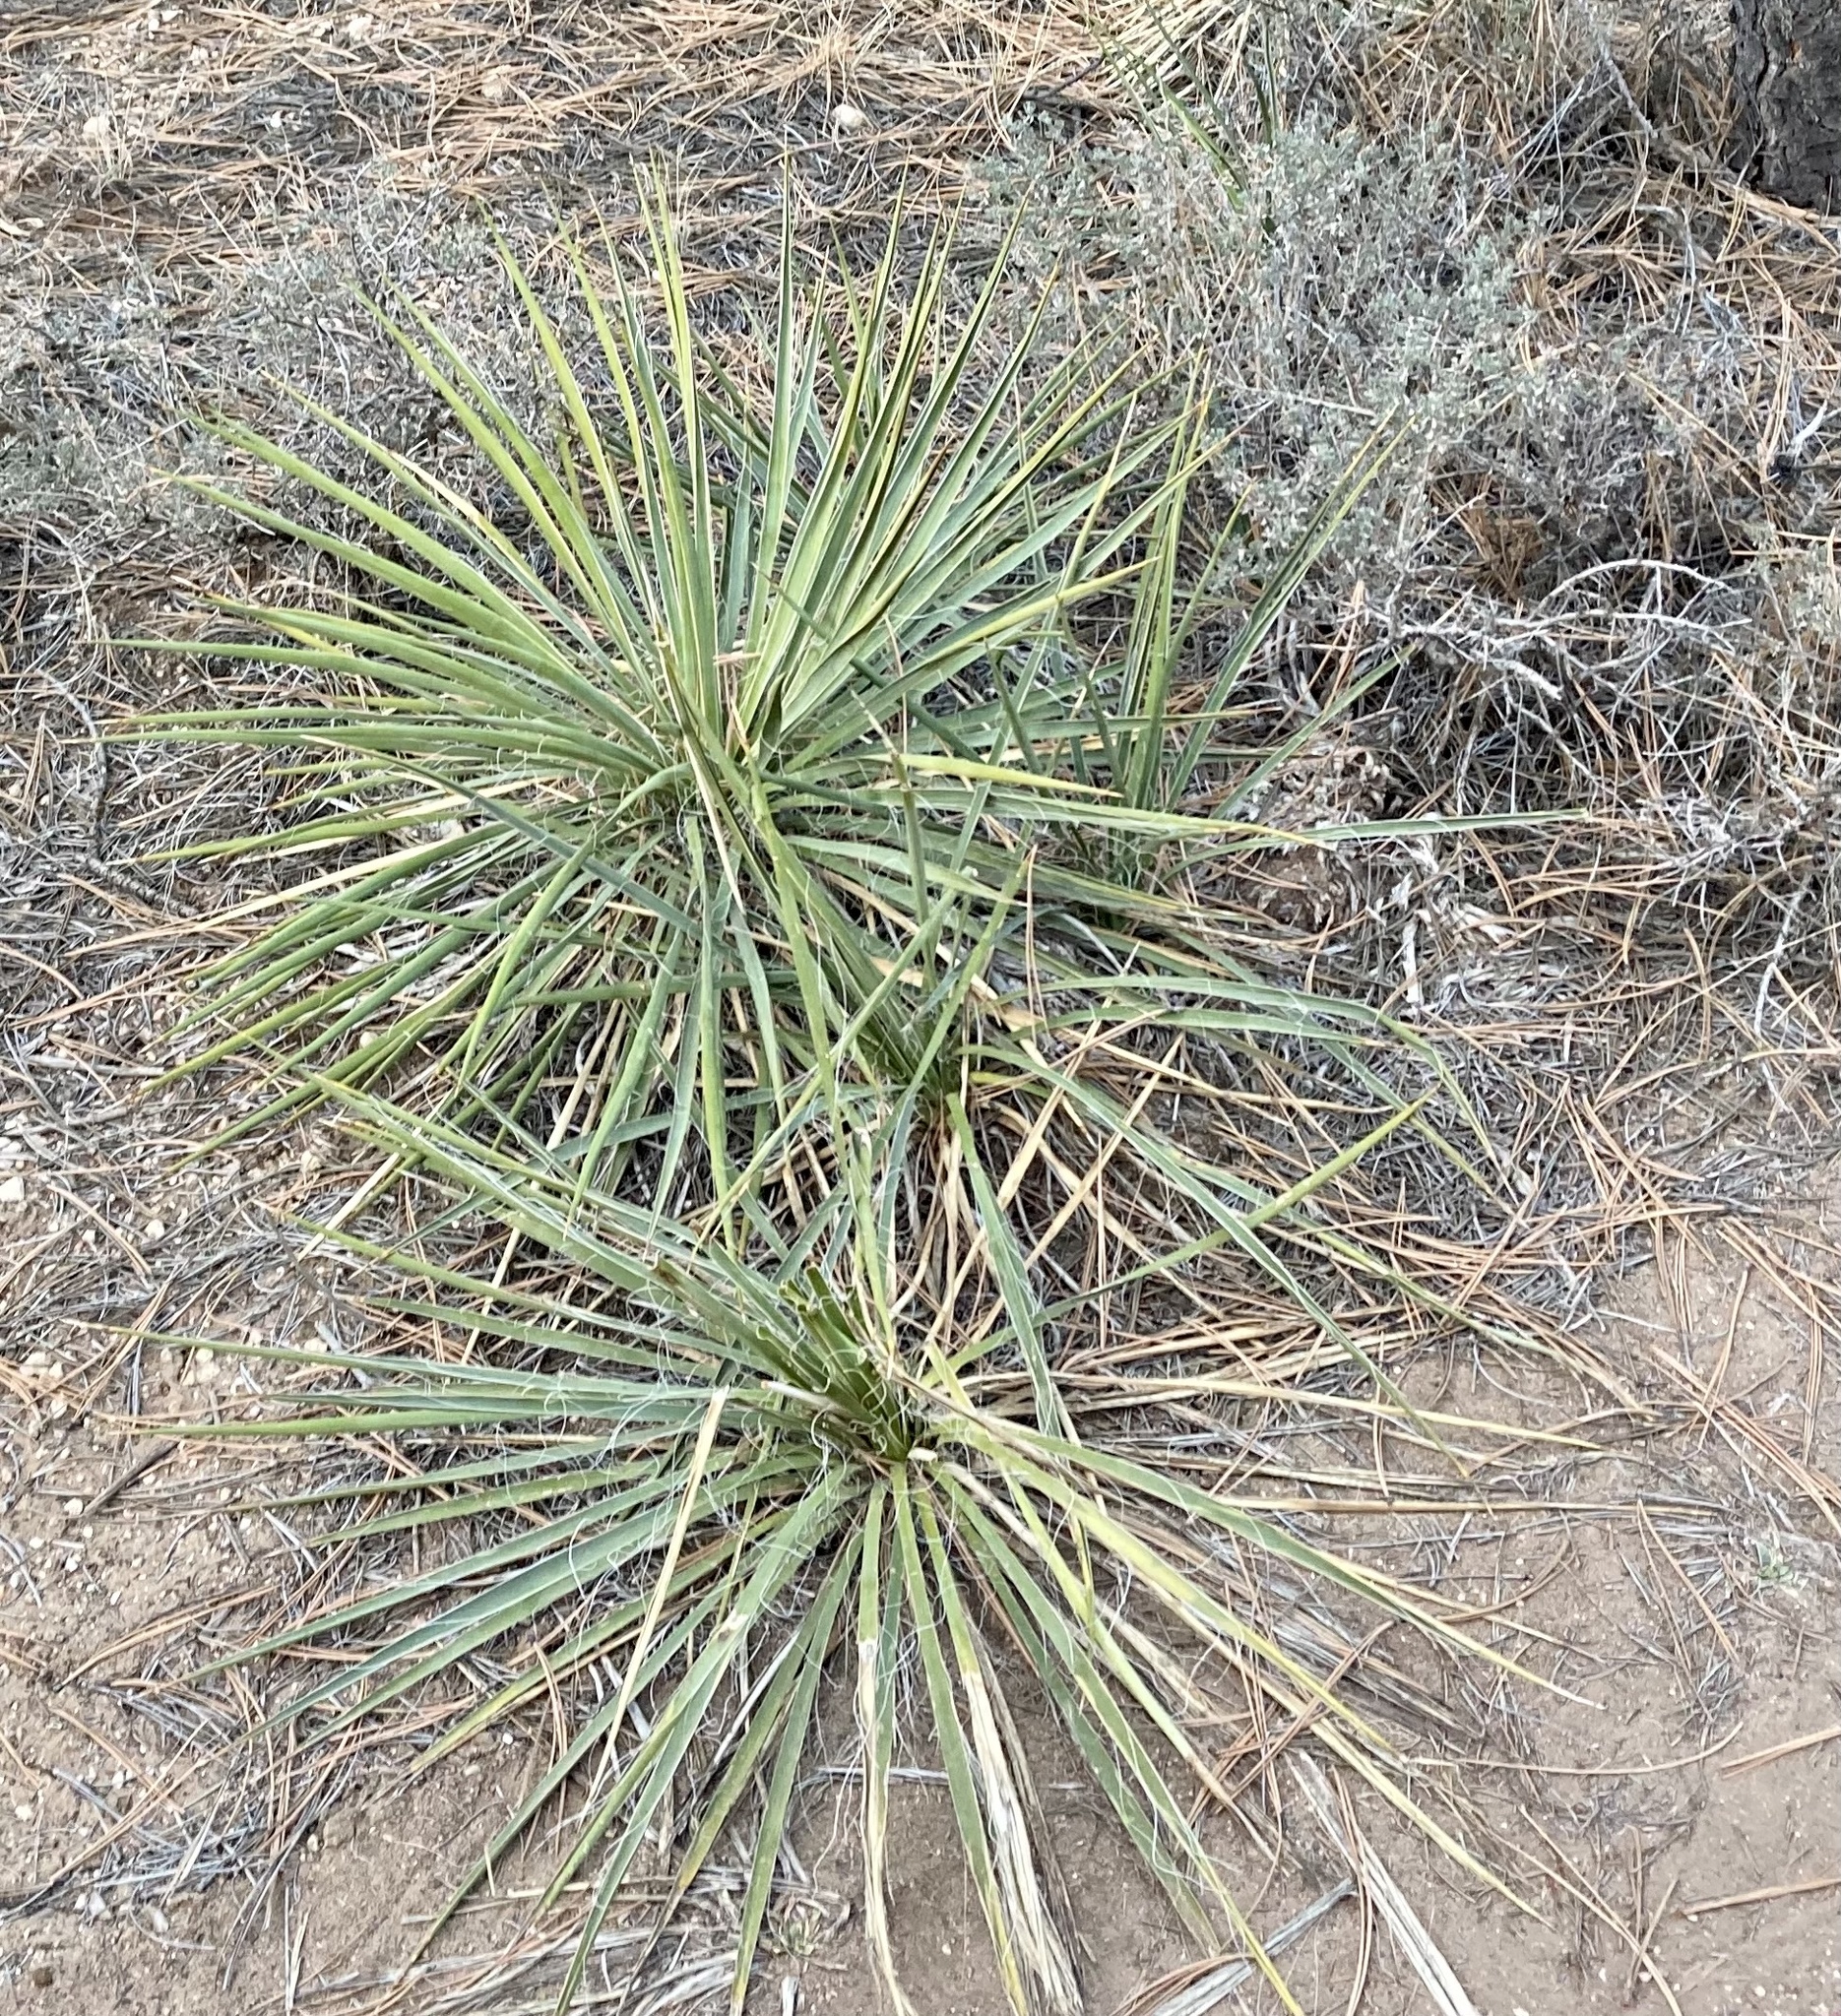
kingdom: Plantae
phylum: Tracheophyta
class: Liliopsida
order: Asparagales
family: Asparagaceae
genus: Yucca
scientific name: Yucca angustissima
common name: Narrowleaf yucca
